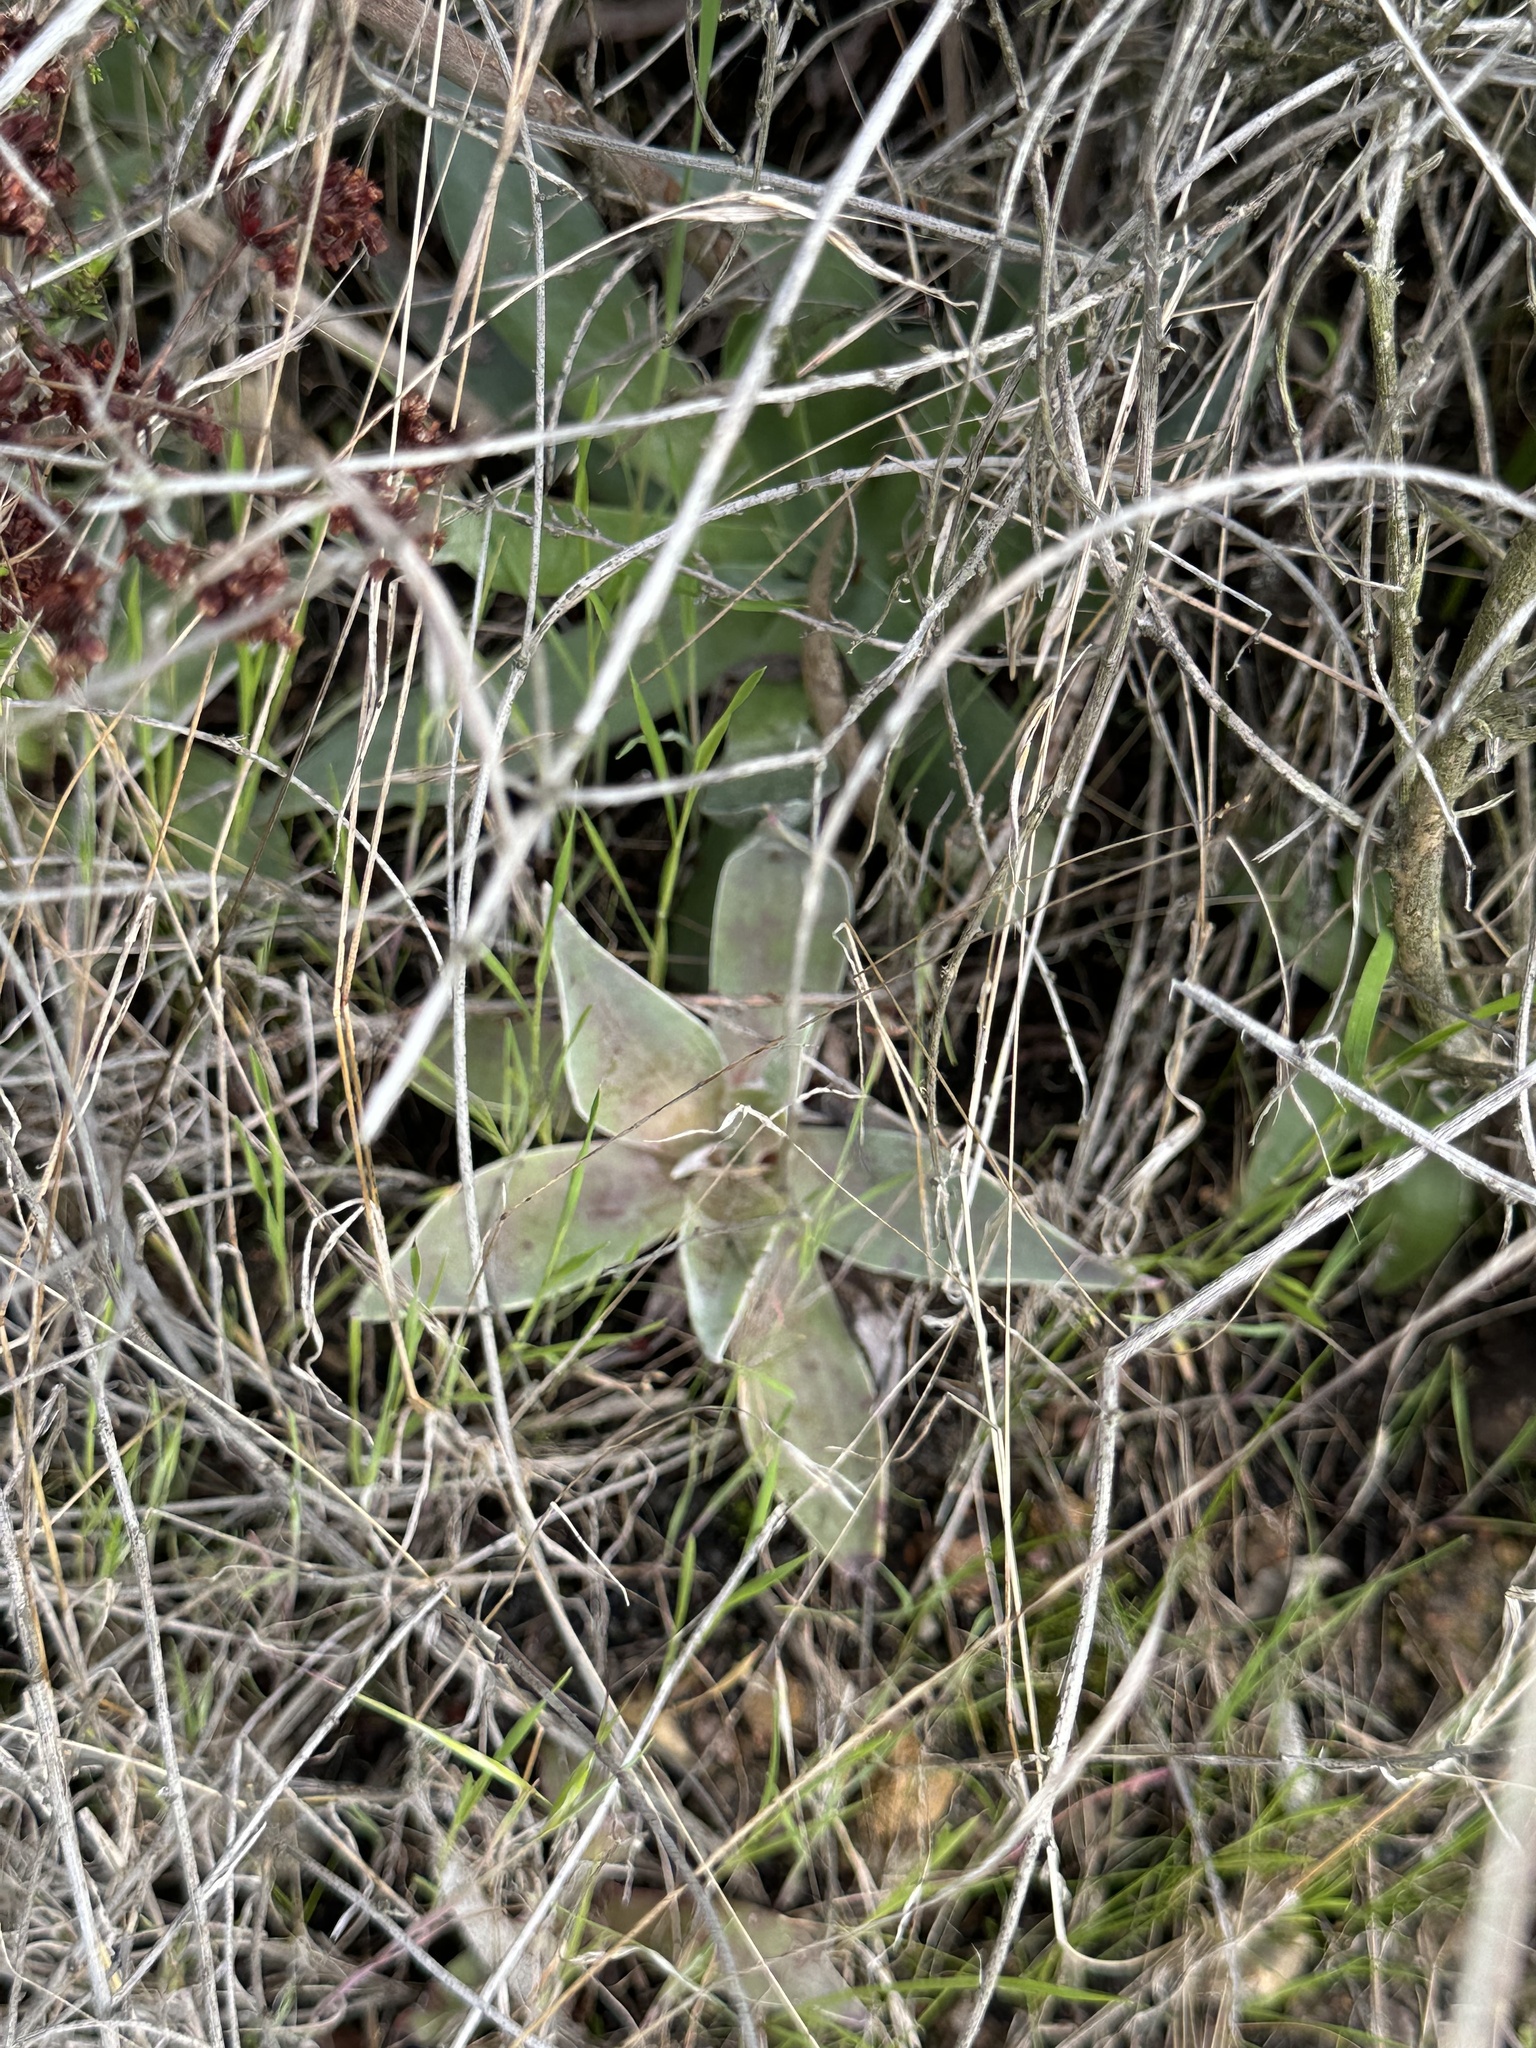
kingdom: Plantae
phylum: Tracheophyta
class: Magnoliopsida
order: Saxifragales
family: Crassulaceae
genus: Dudleya
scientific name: Dudleya lanceolata
